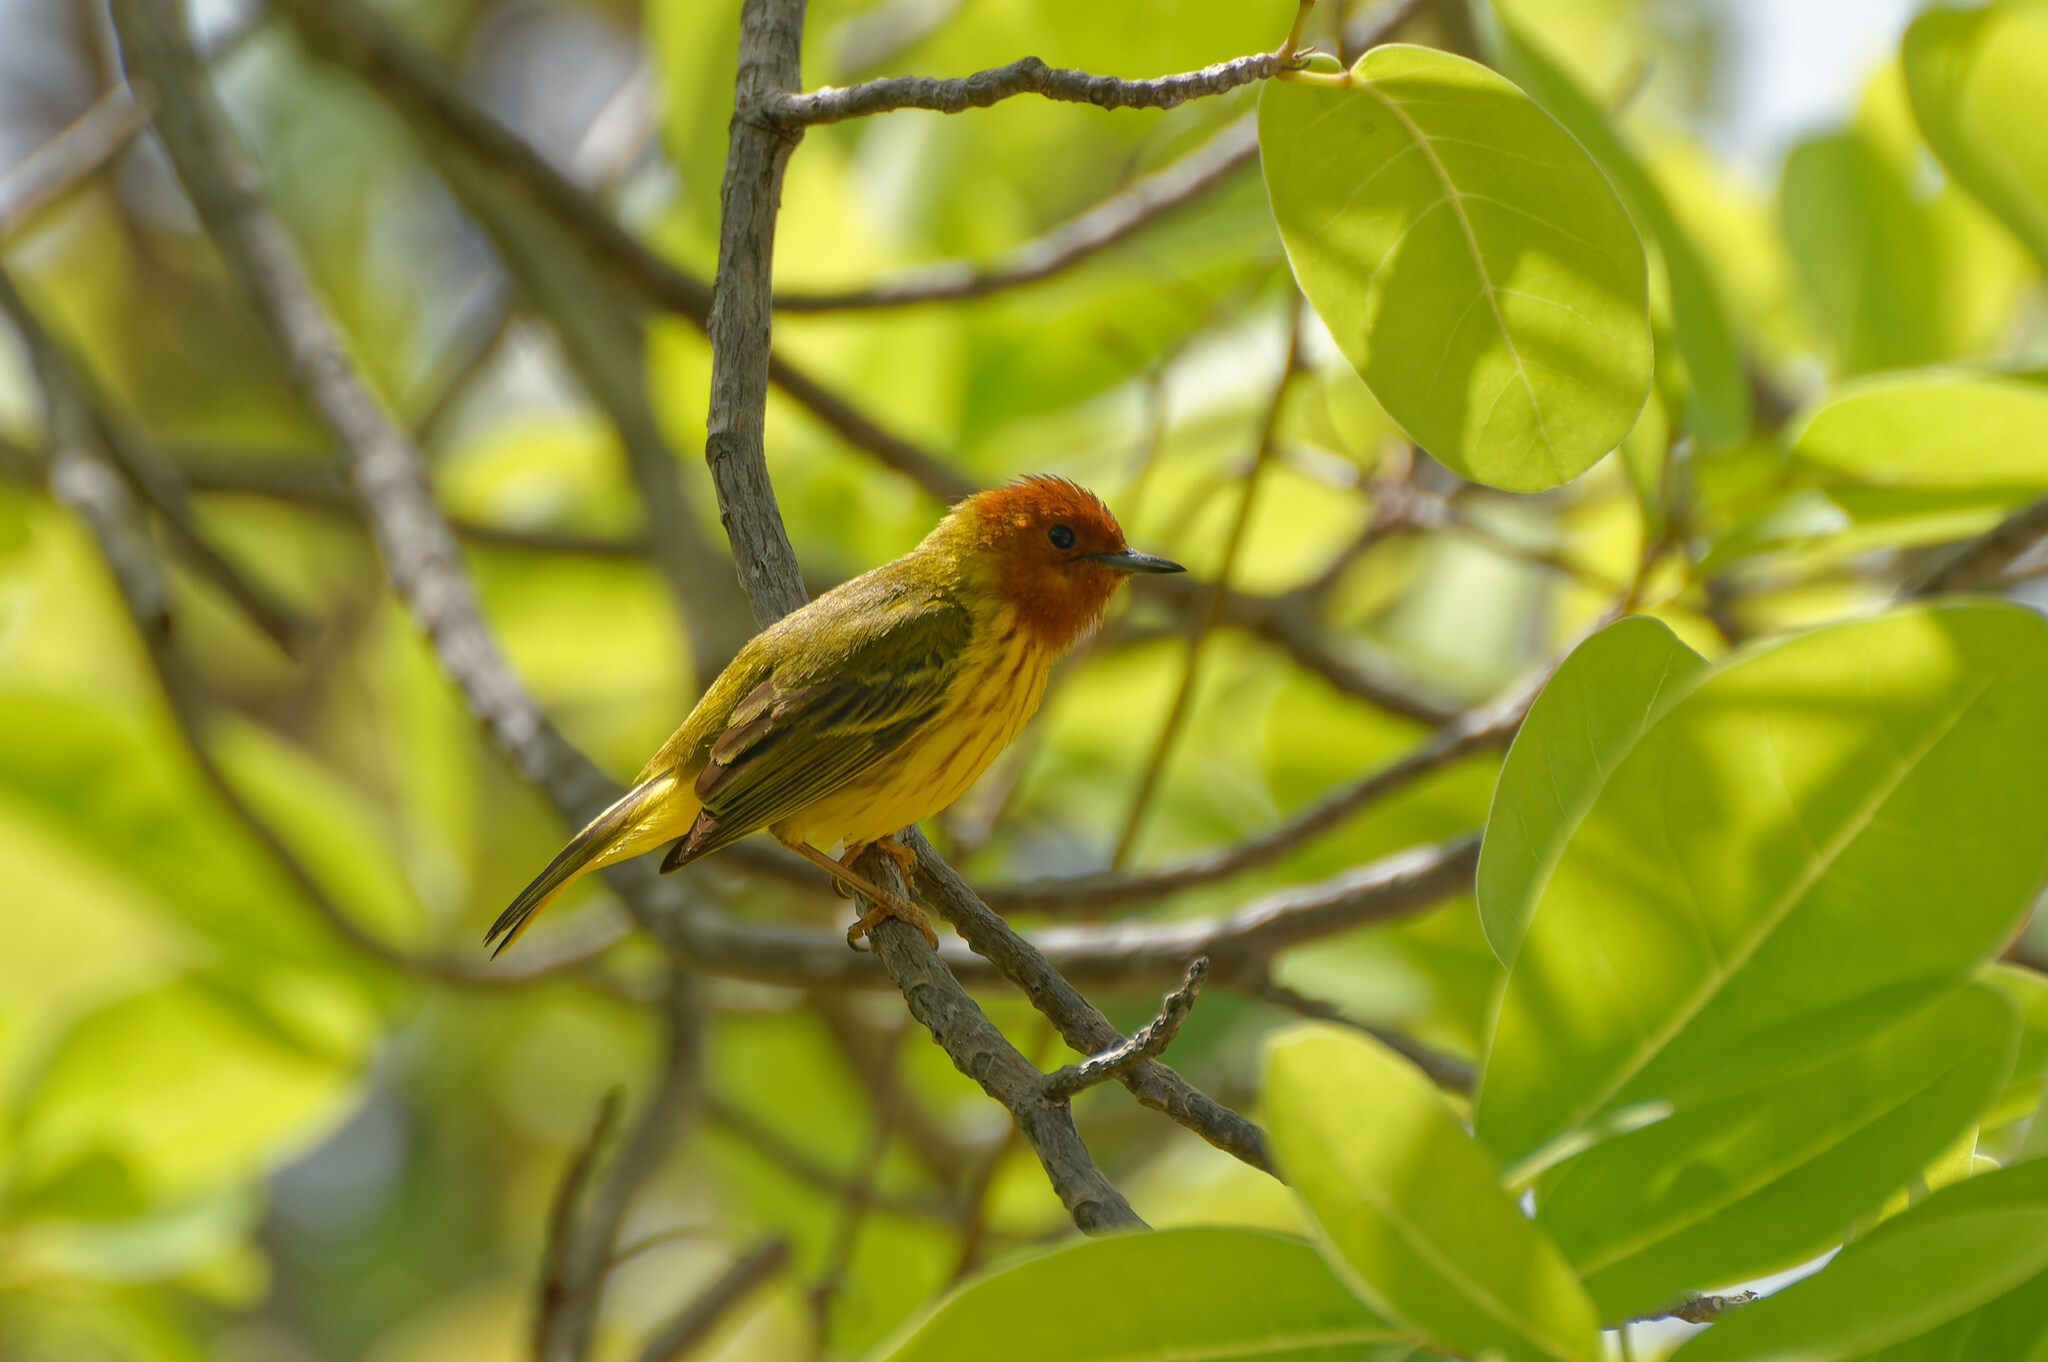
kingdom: Animalia
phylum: Chordata
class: Aves
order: Passeriformes
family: Parulidae
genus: Setophaga
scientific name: Setophaga petechia
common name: Yellow warbler
